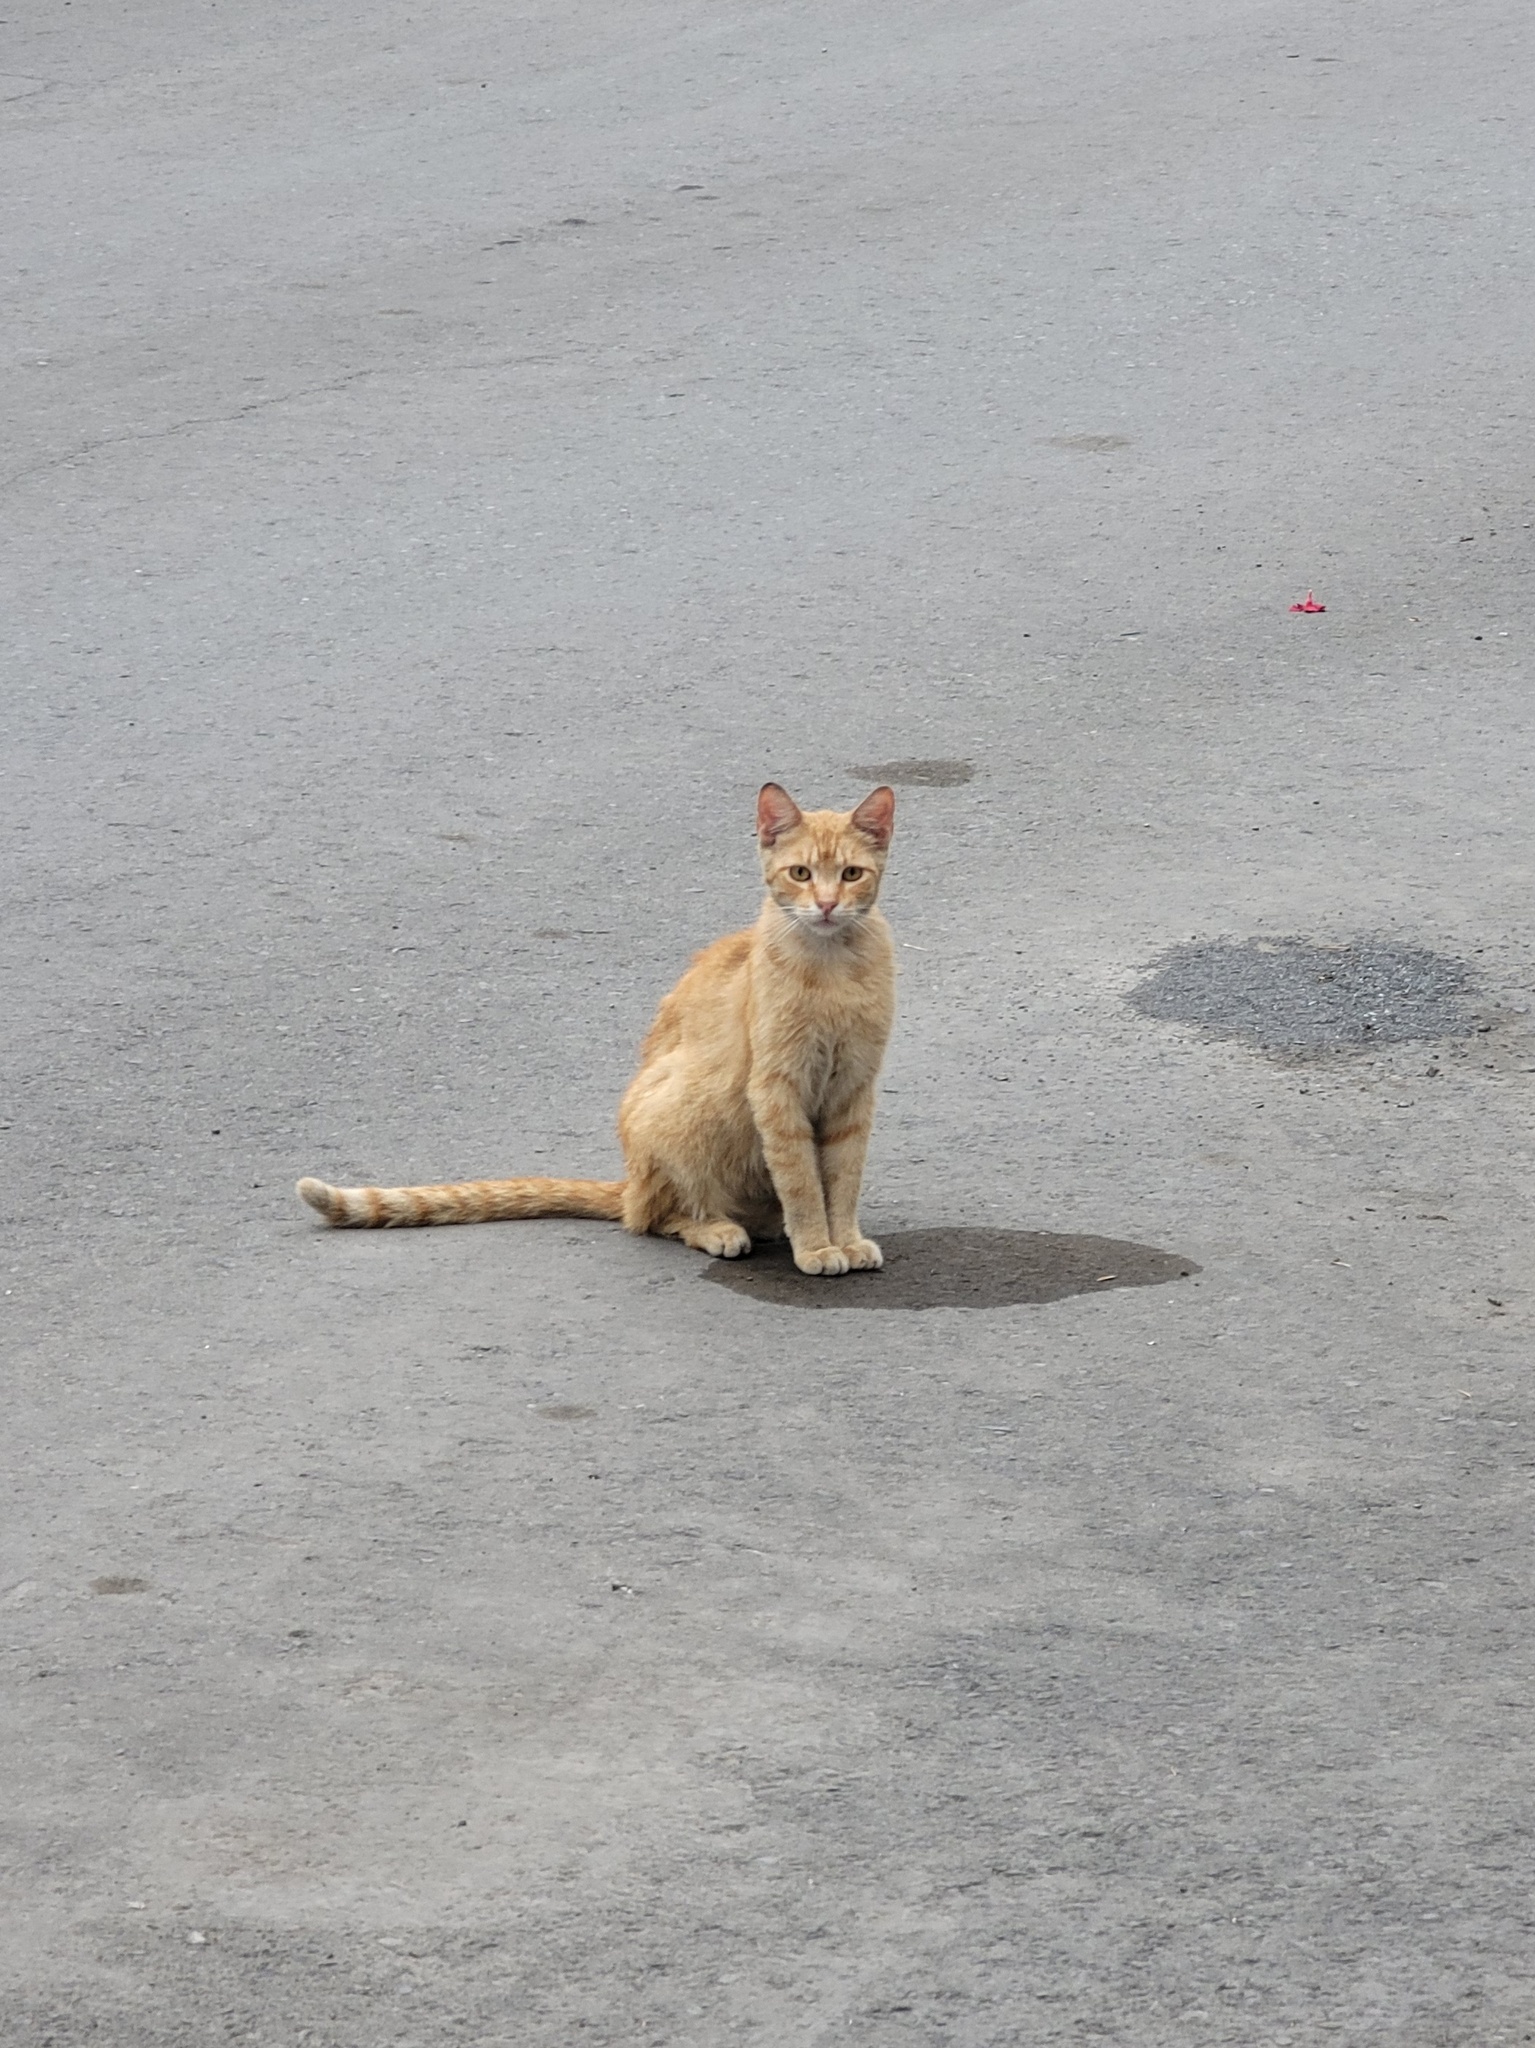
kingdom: Animalia
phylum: Chordata
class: Mammalia
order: Carnivora
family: Felidae
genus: Felis
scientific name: Felis catus
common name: Domestic cat
